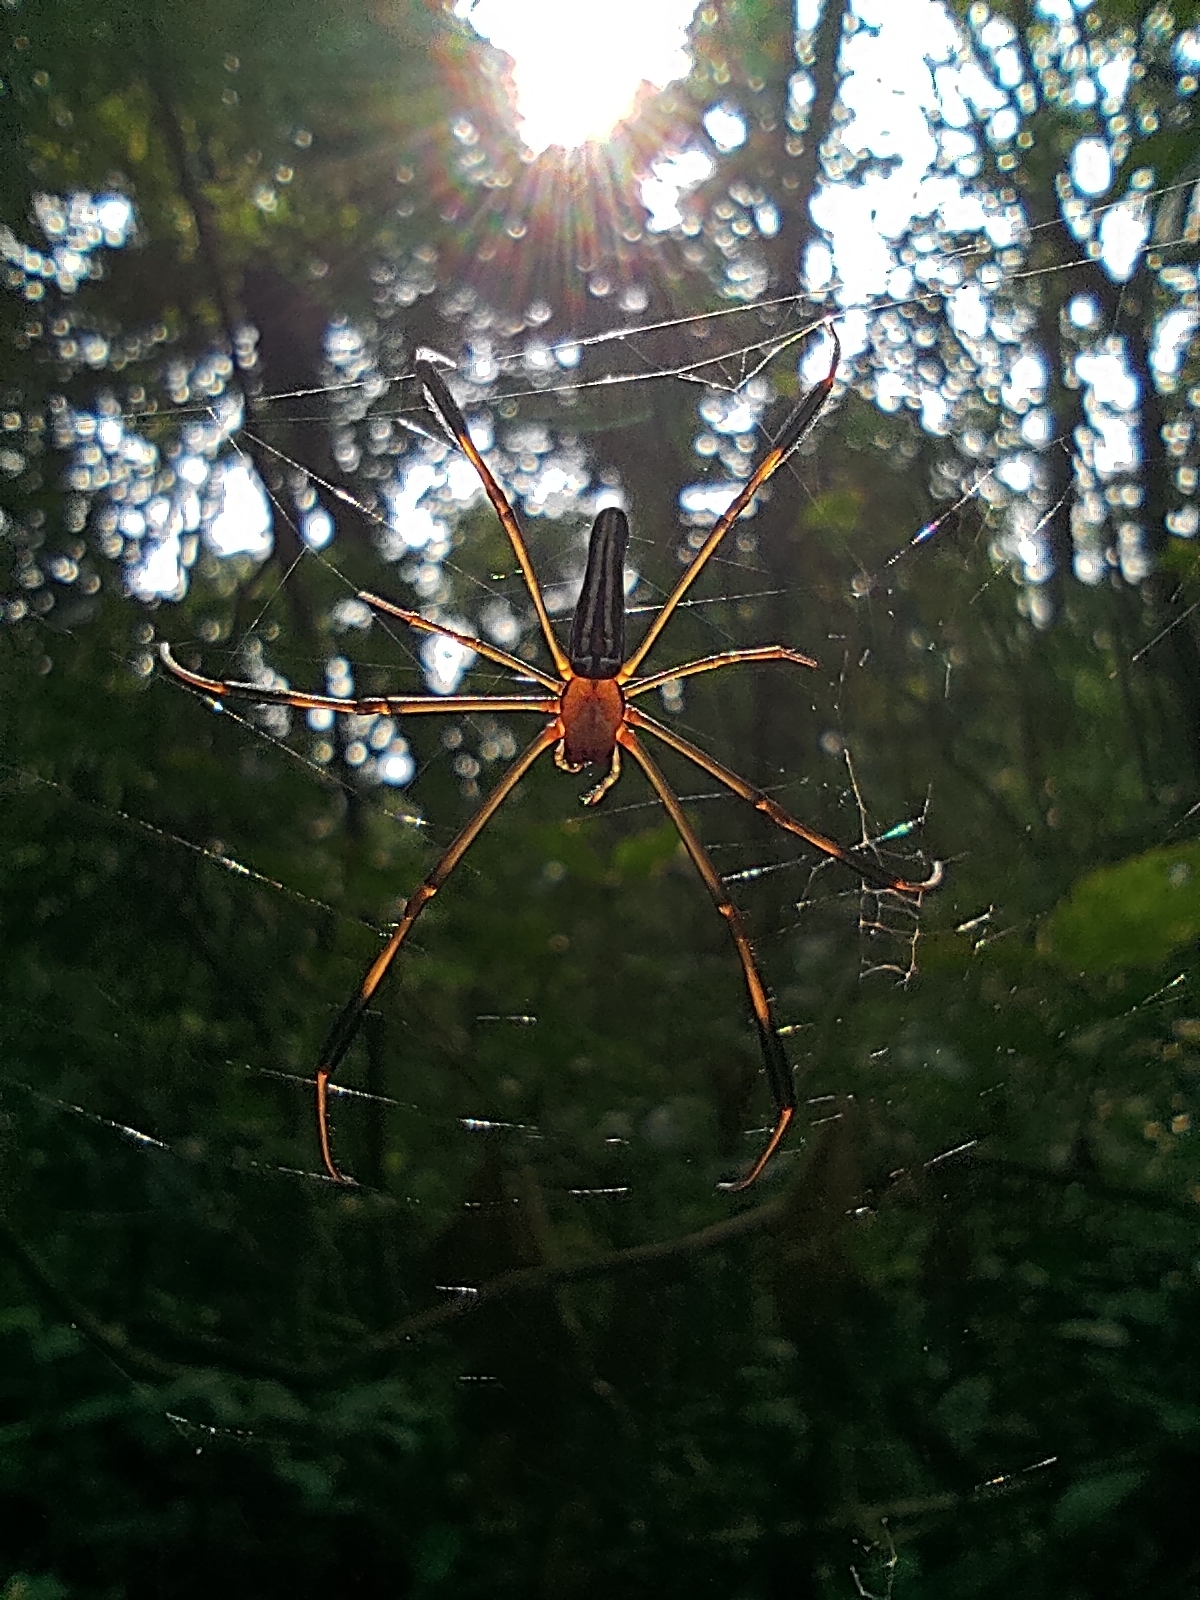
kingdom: Animalia
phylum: Arthropoda
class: Arachnida
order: Araneae
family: Araneidae
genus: Nephila
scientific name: Nephila pilipes
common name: Giant golden orb weaver
